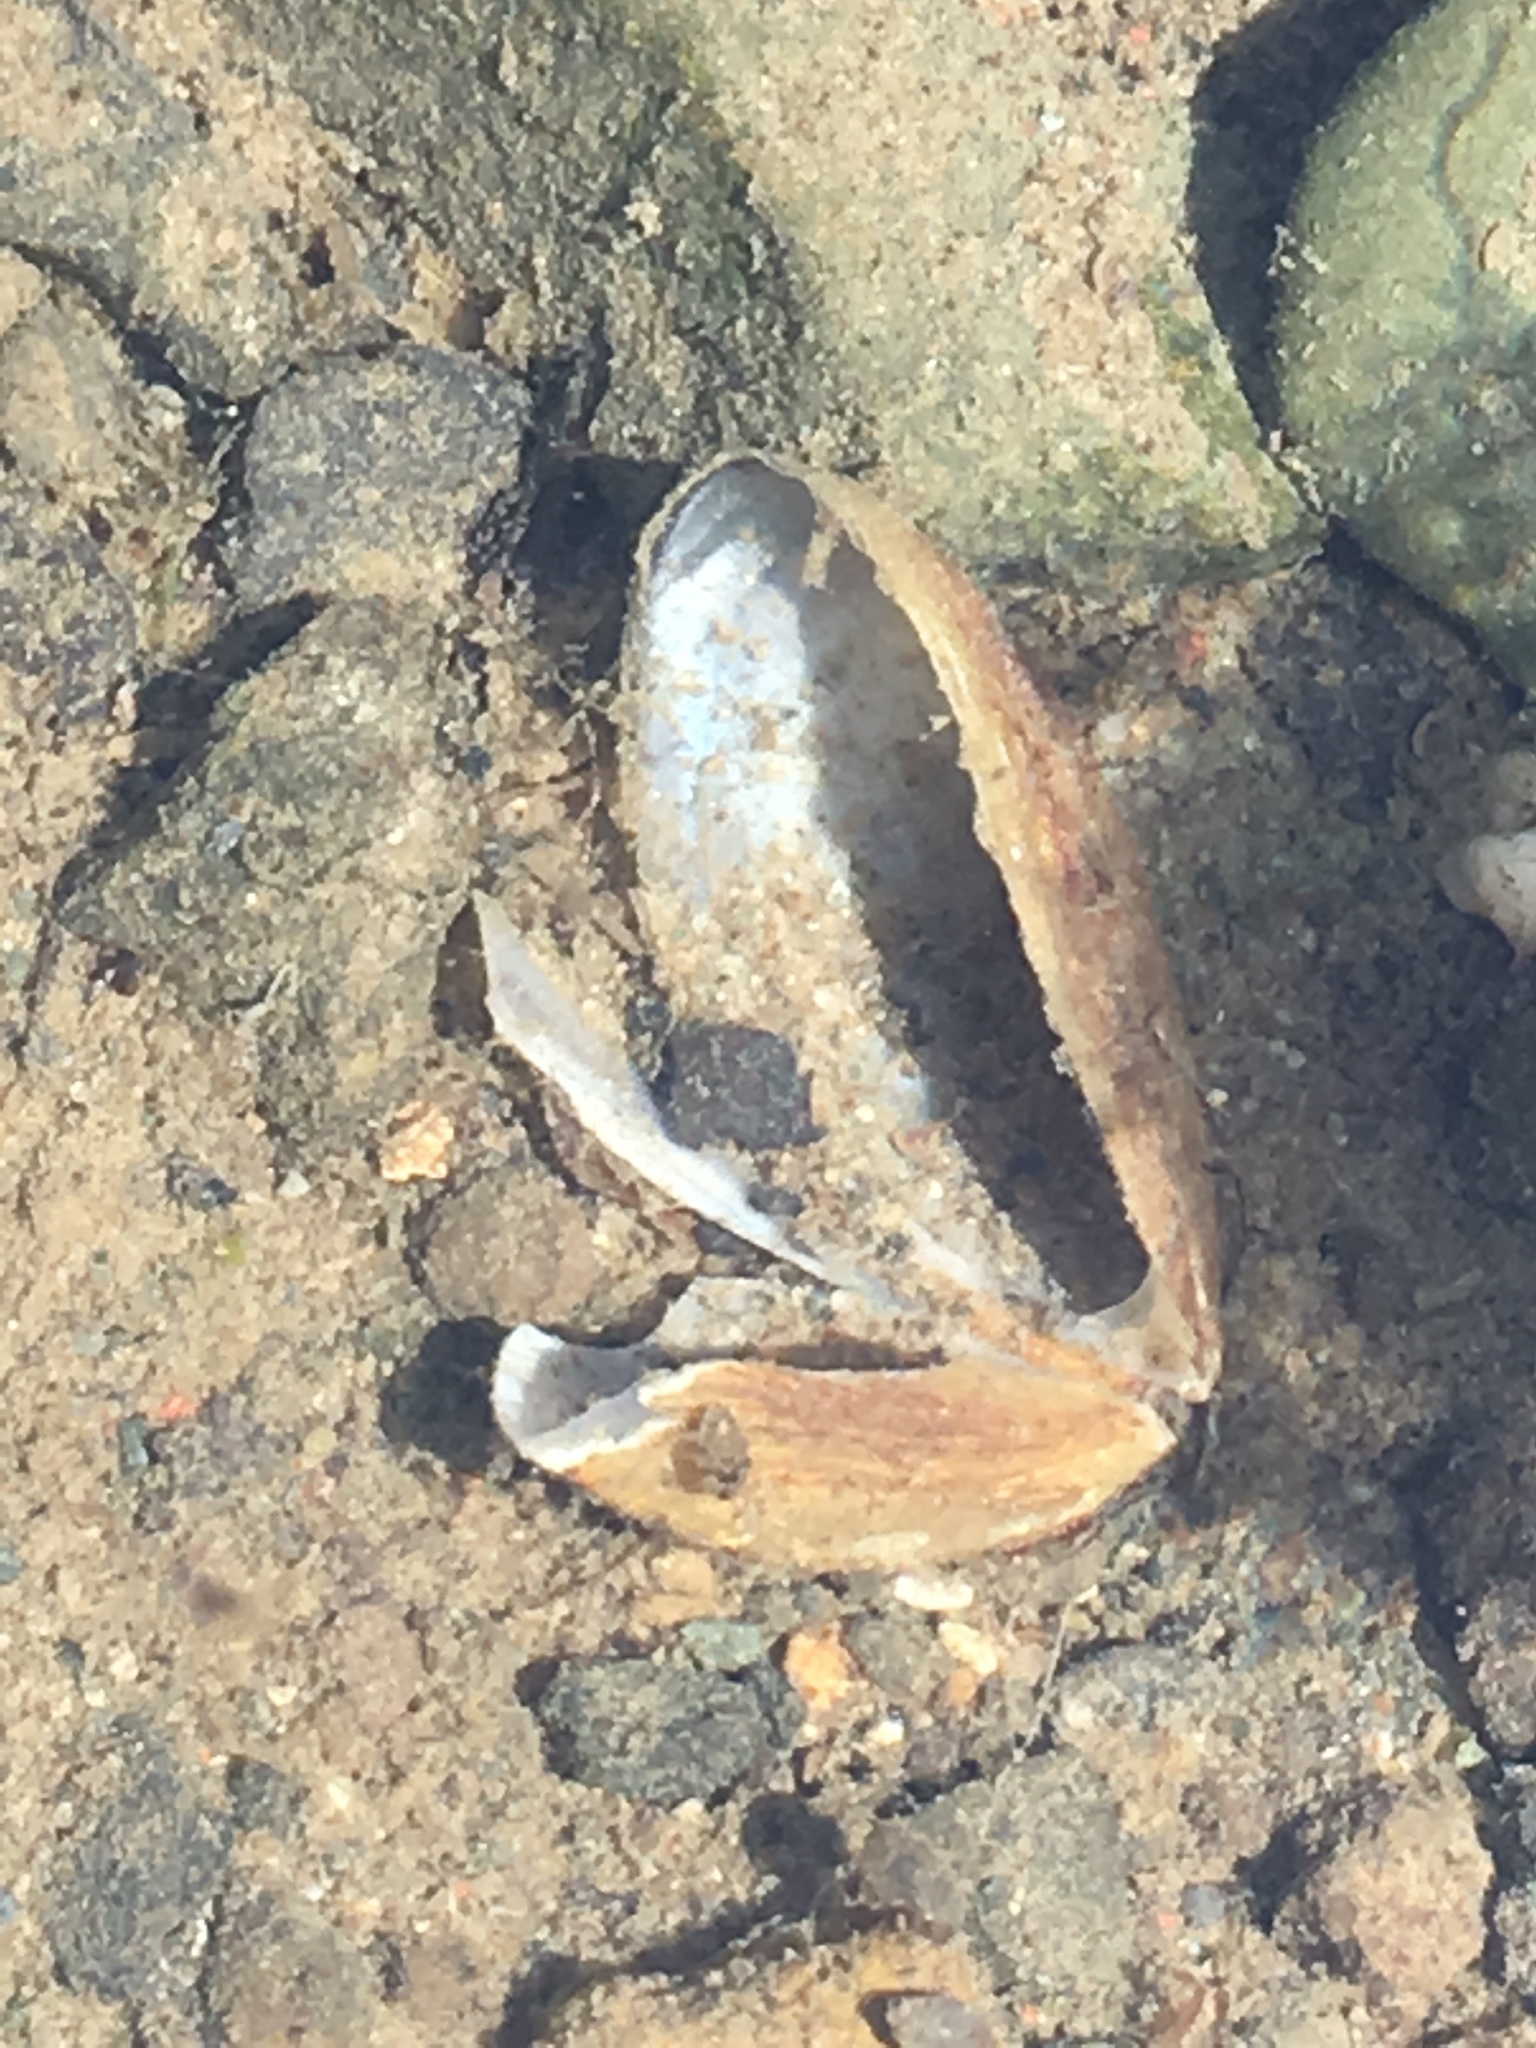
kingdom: Animalia
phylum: Mollusca
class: Bivalvia
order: Myida
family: Dreissenidae
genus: Dreissena
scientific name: Dreissena
